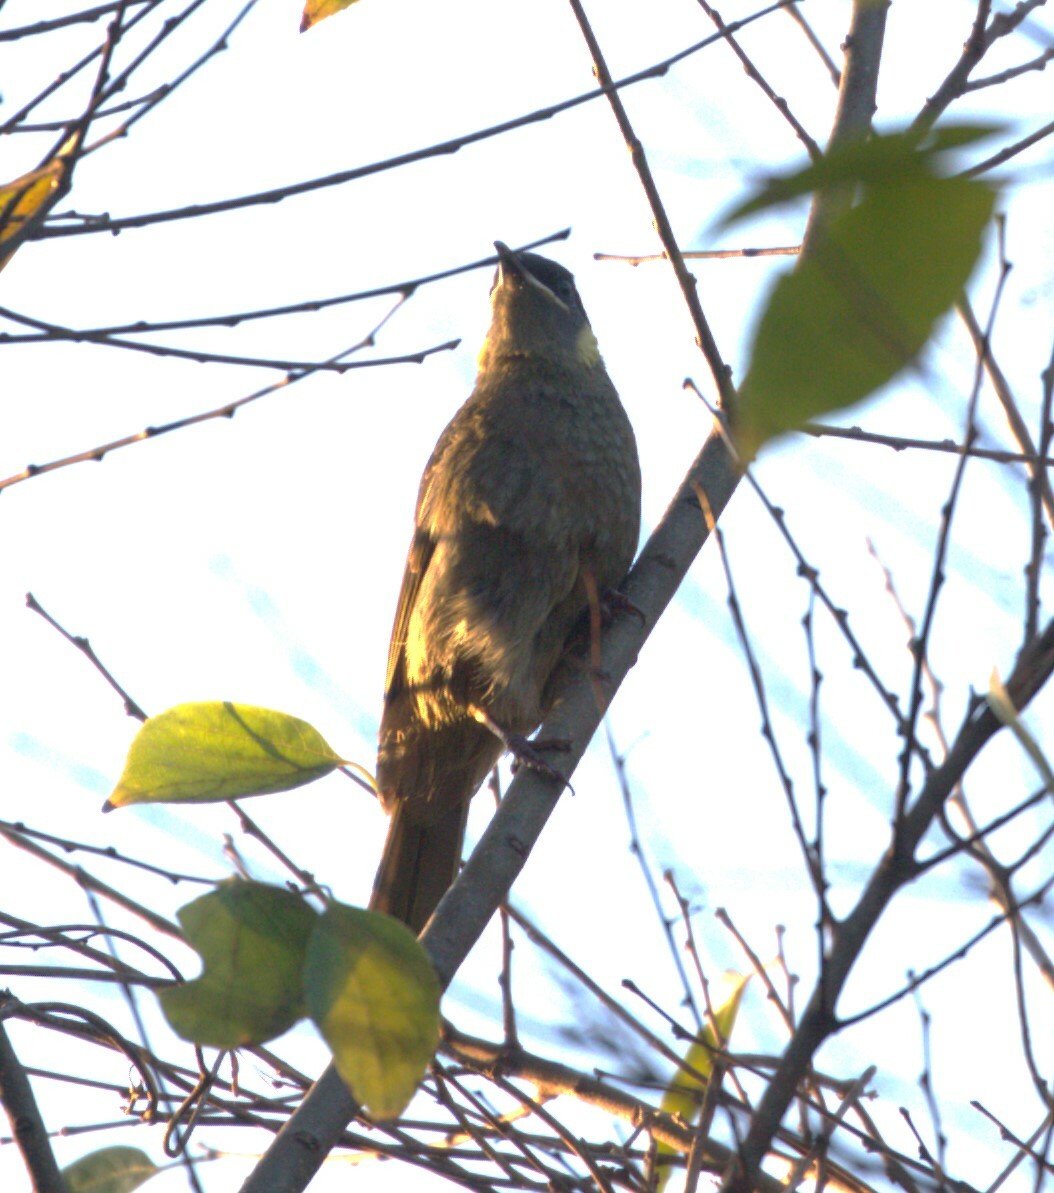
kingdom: Animalia
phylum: Chordata
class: Aves
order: Passeriformes
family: Meliphagidae
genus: Meliphaga
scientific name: Meliphaga lewinii
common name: Lewin's honeyeater
